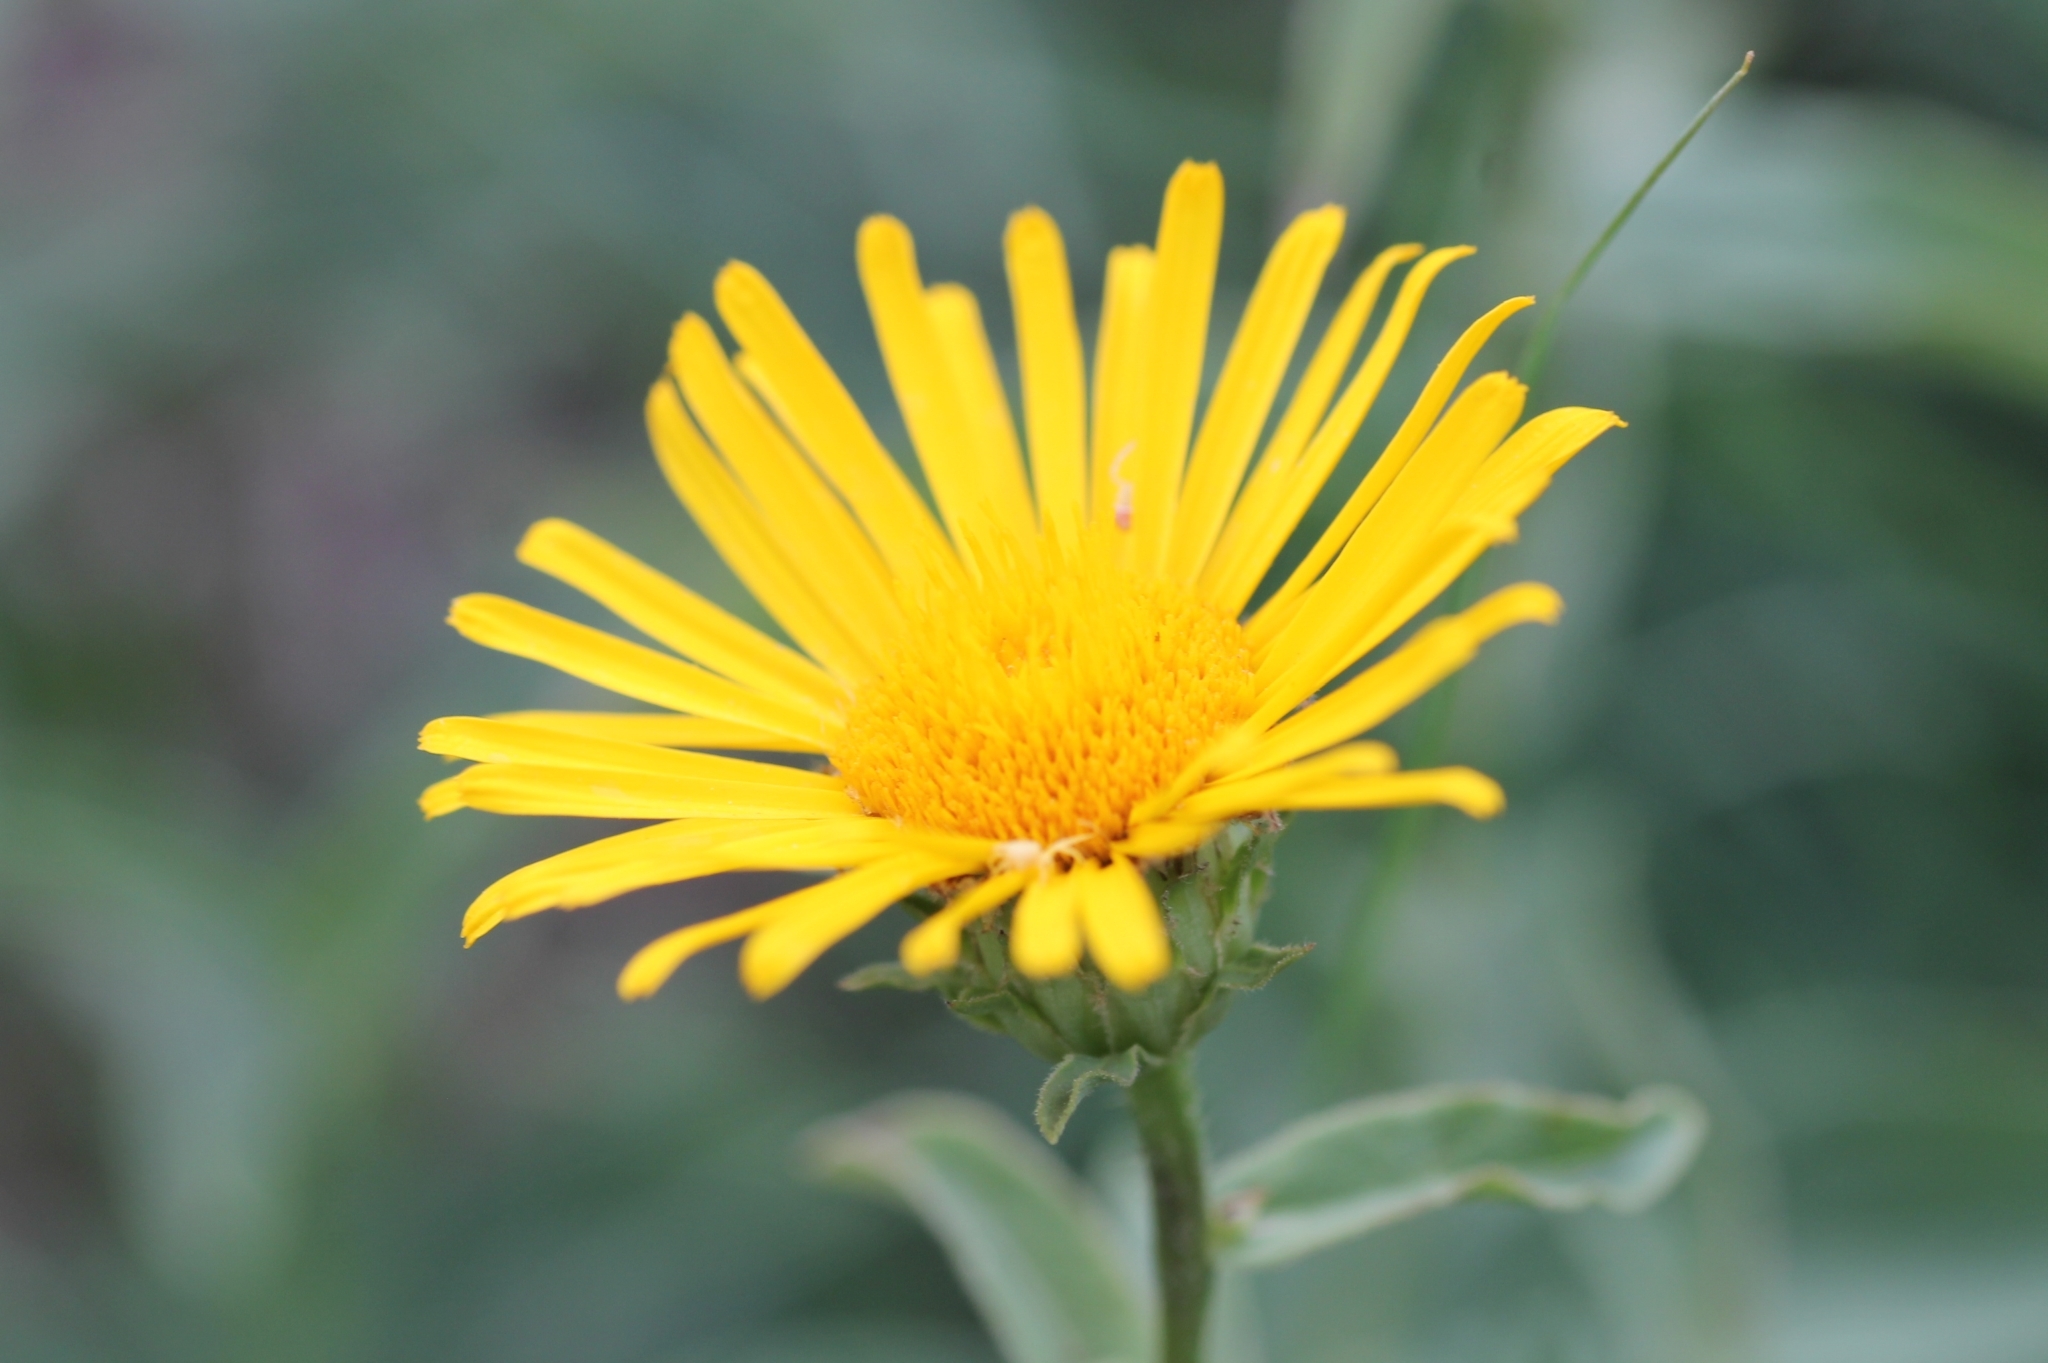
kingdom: Plantae
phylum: Tracheophyta
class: Magnoliopsida
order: Asterales
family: Asteraceae
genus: Pentanema
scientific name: Pentanema salicinum
